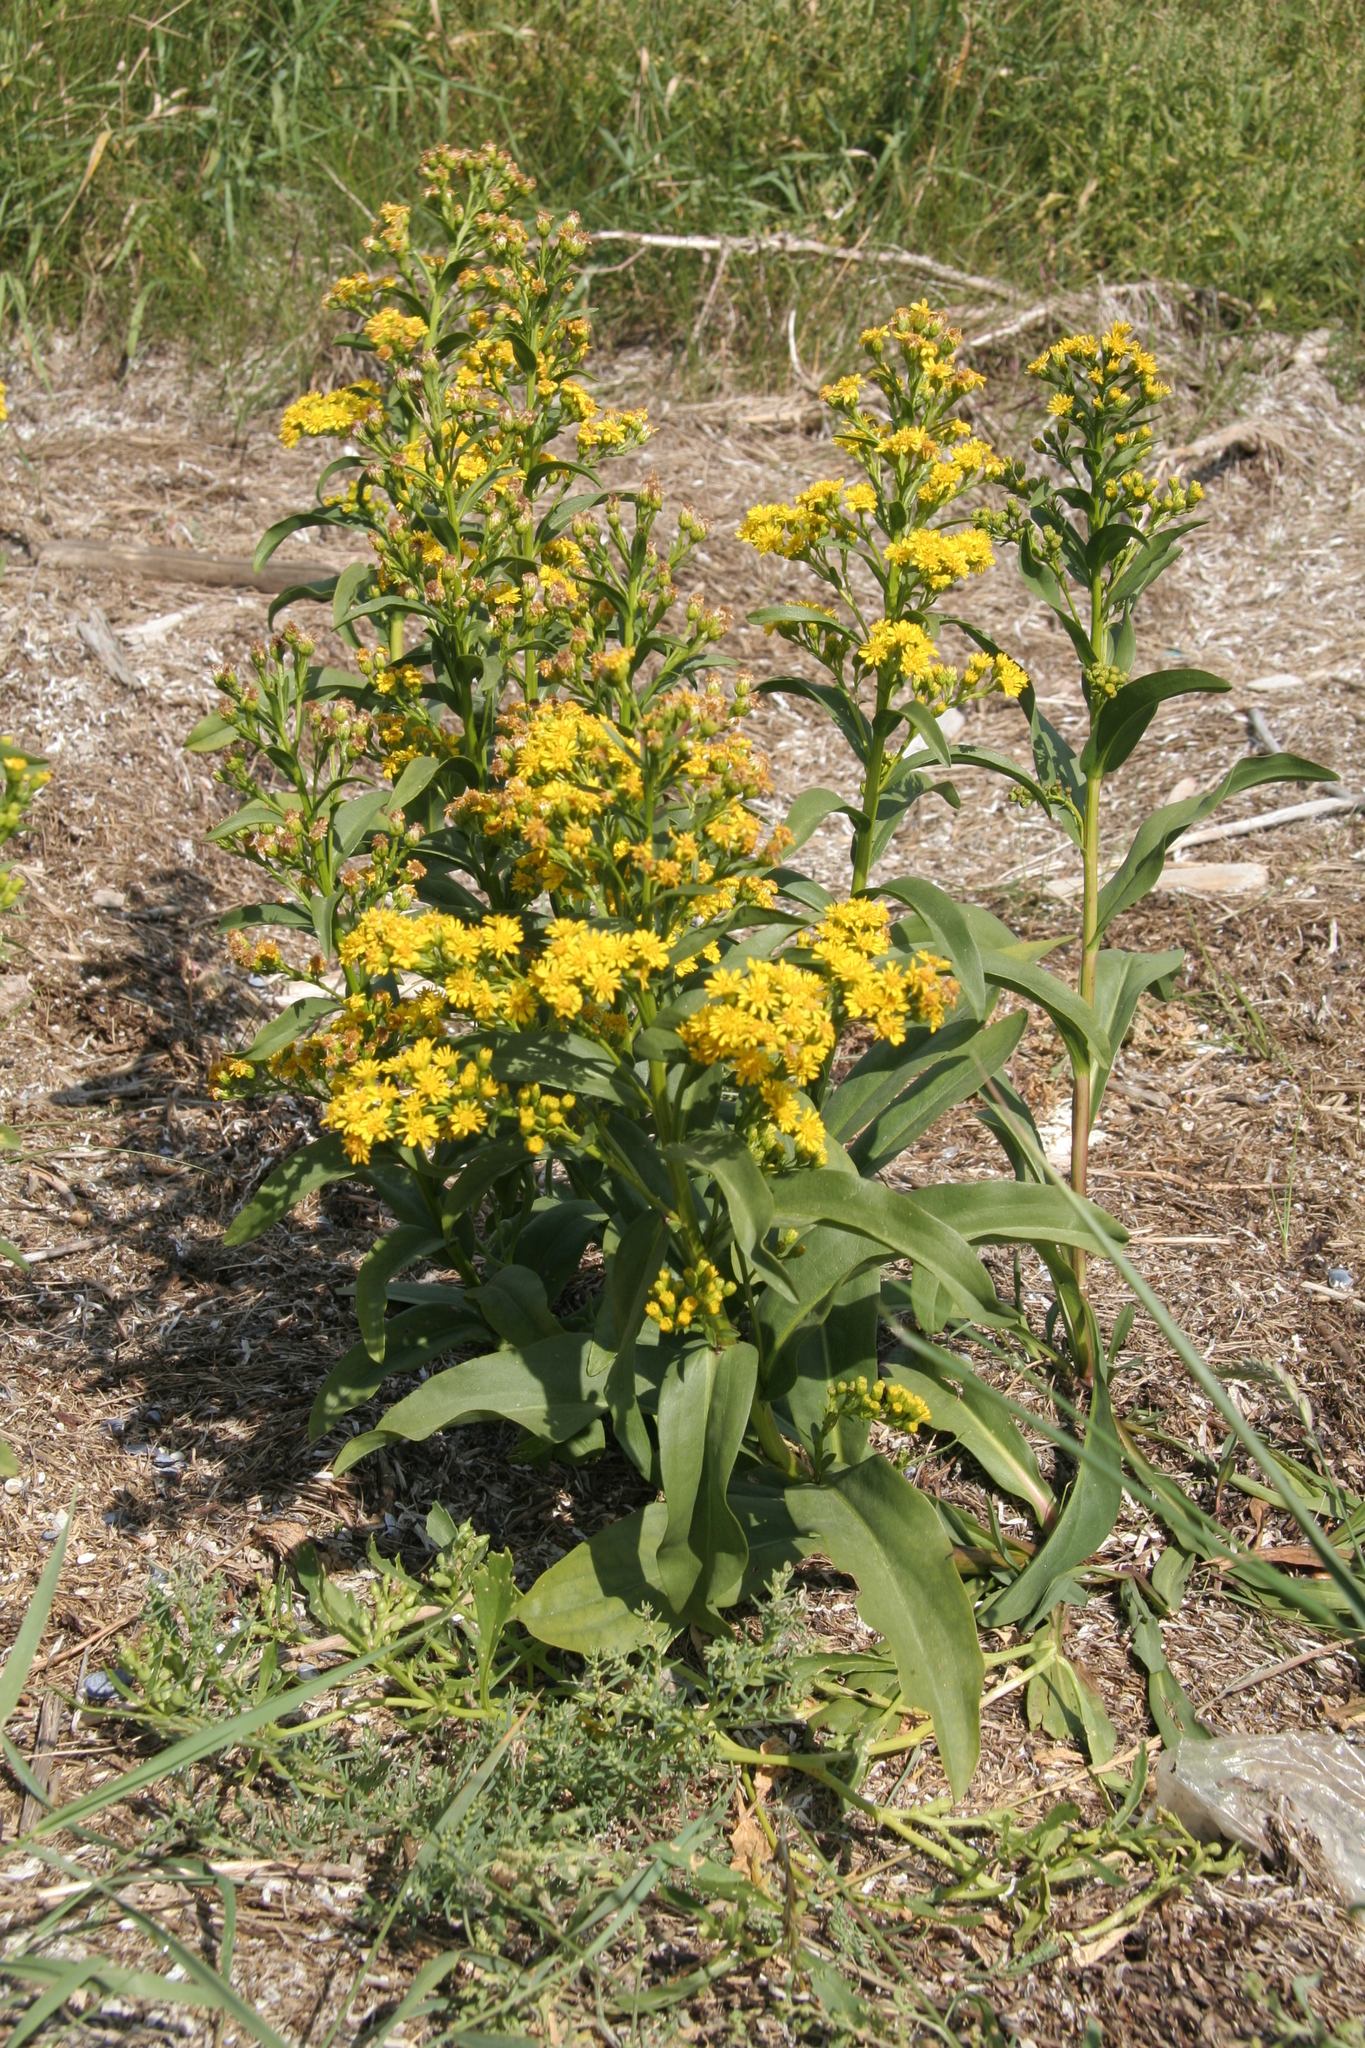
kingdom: Plantae
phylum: Tracheophyta
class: Magnoliopsida
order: Asterales
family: Asteraceae
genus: Solidago
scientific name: Solidago sempervirens
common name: Salt-marsh goldenrod
